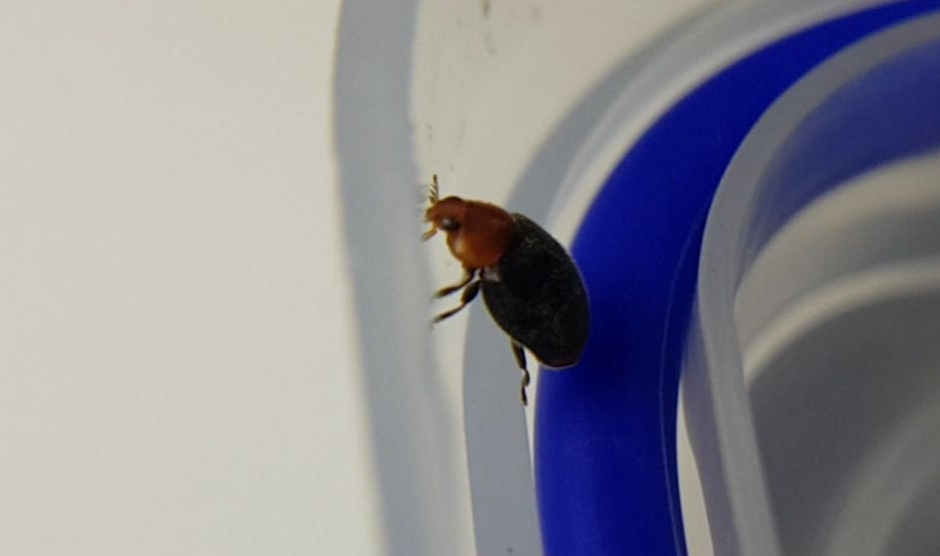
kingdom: Animalia
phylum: Arthropoda
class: Insecta
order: Coleoptera
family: Coccinellidae
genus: Cryptolaemus
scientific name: Cryptolaemus montrouzieri
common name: Mealybug destroyer
